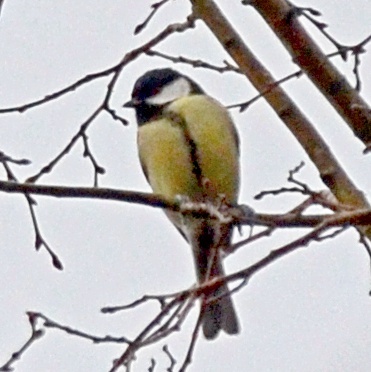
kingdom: Animalia
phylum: Chordata
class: Aves
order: Passeriformes
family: Paridae
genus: Parus
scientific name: Parus major
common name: Great tit
